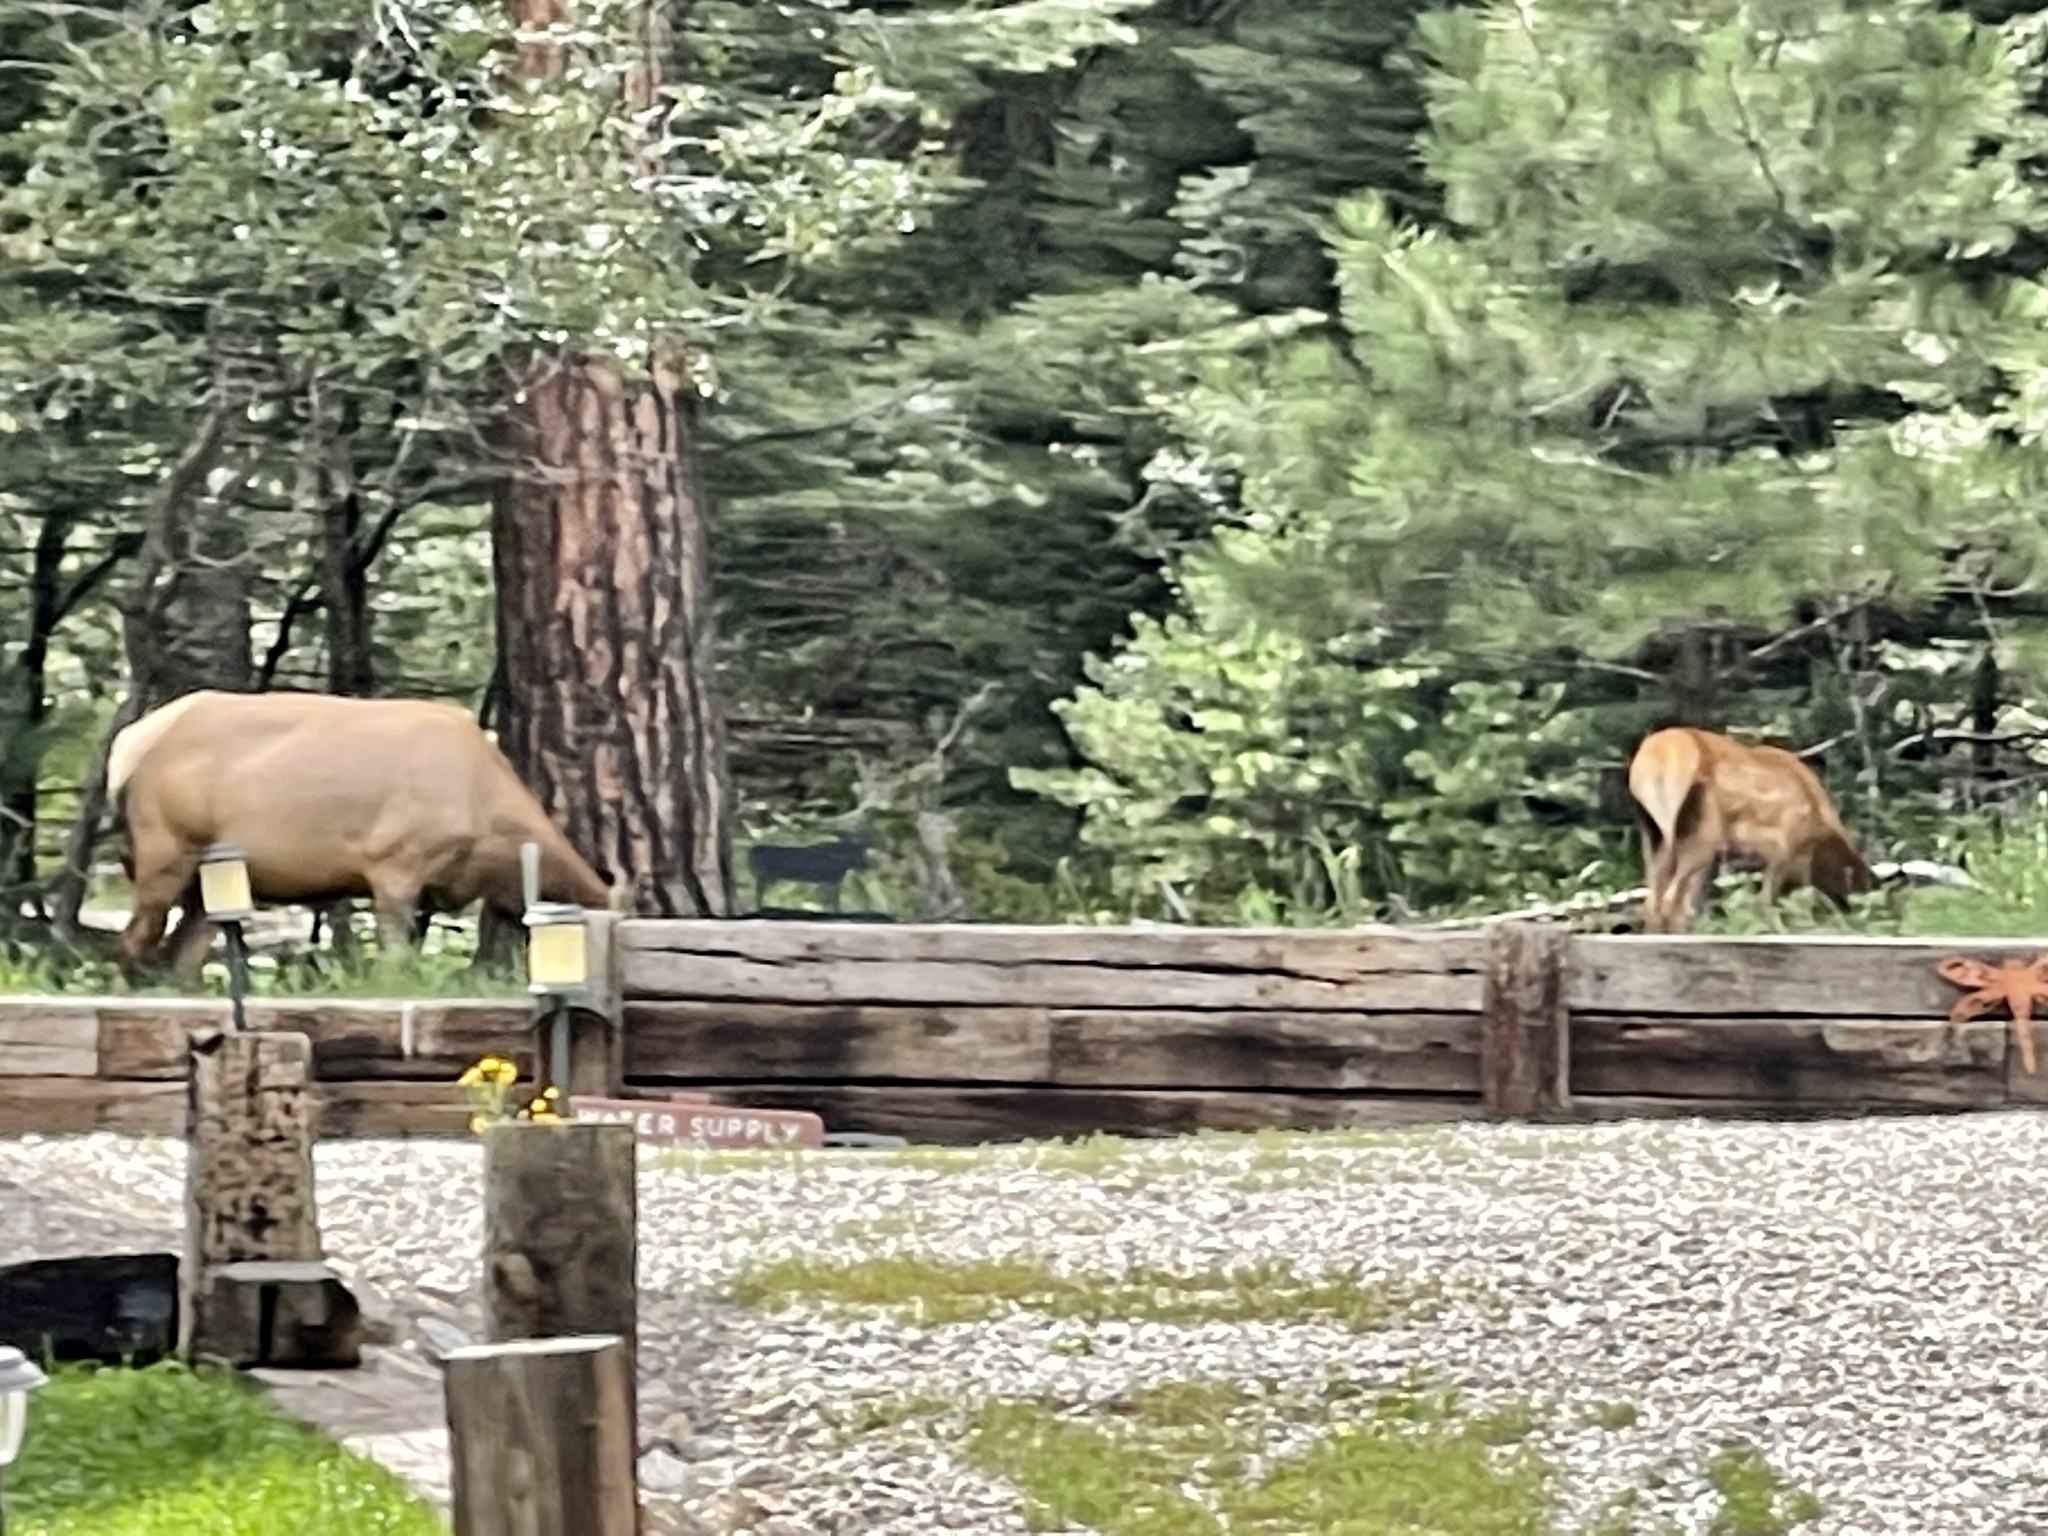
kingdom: Animalia
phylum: Chordata
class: Mammalia
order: Artiodactyla
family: Cervidae
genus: Cervus
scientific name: Cervus elaphus
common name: Red deer
